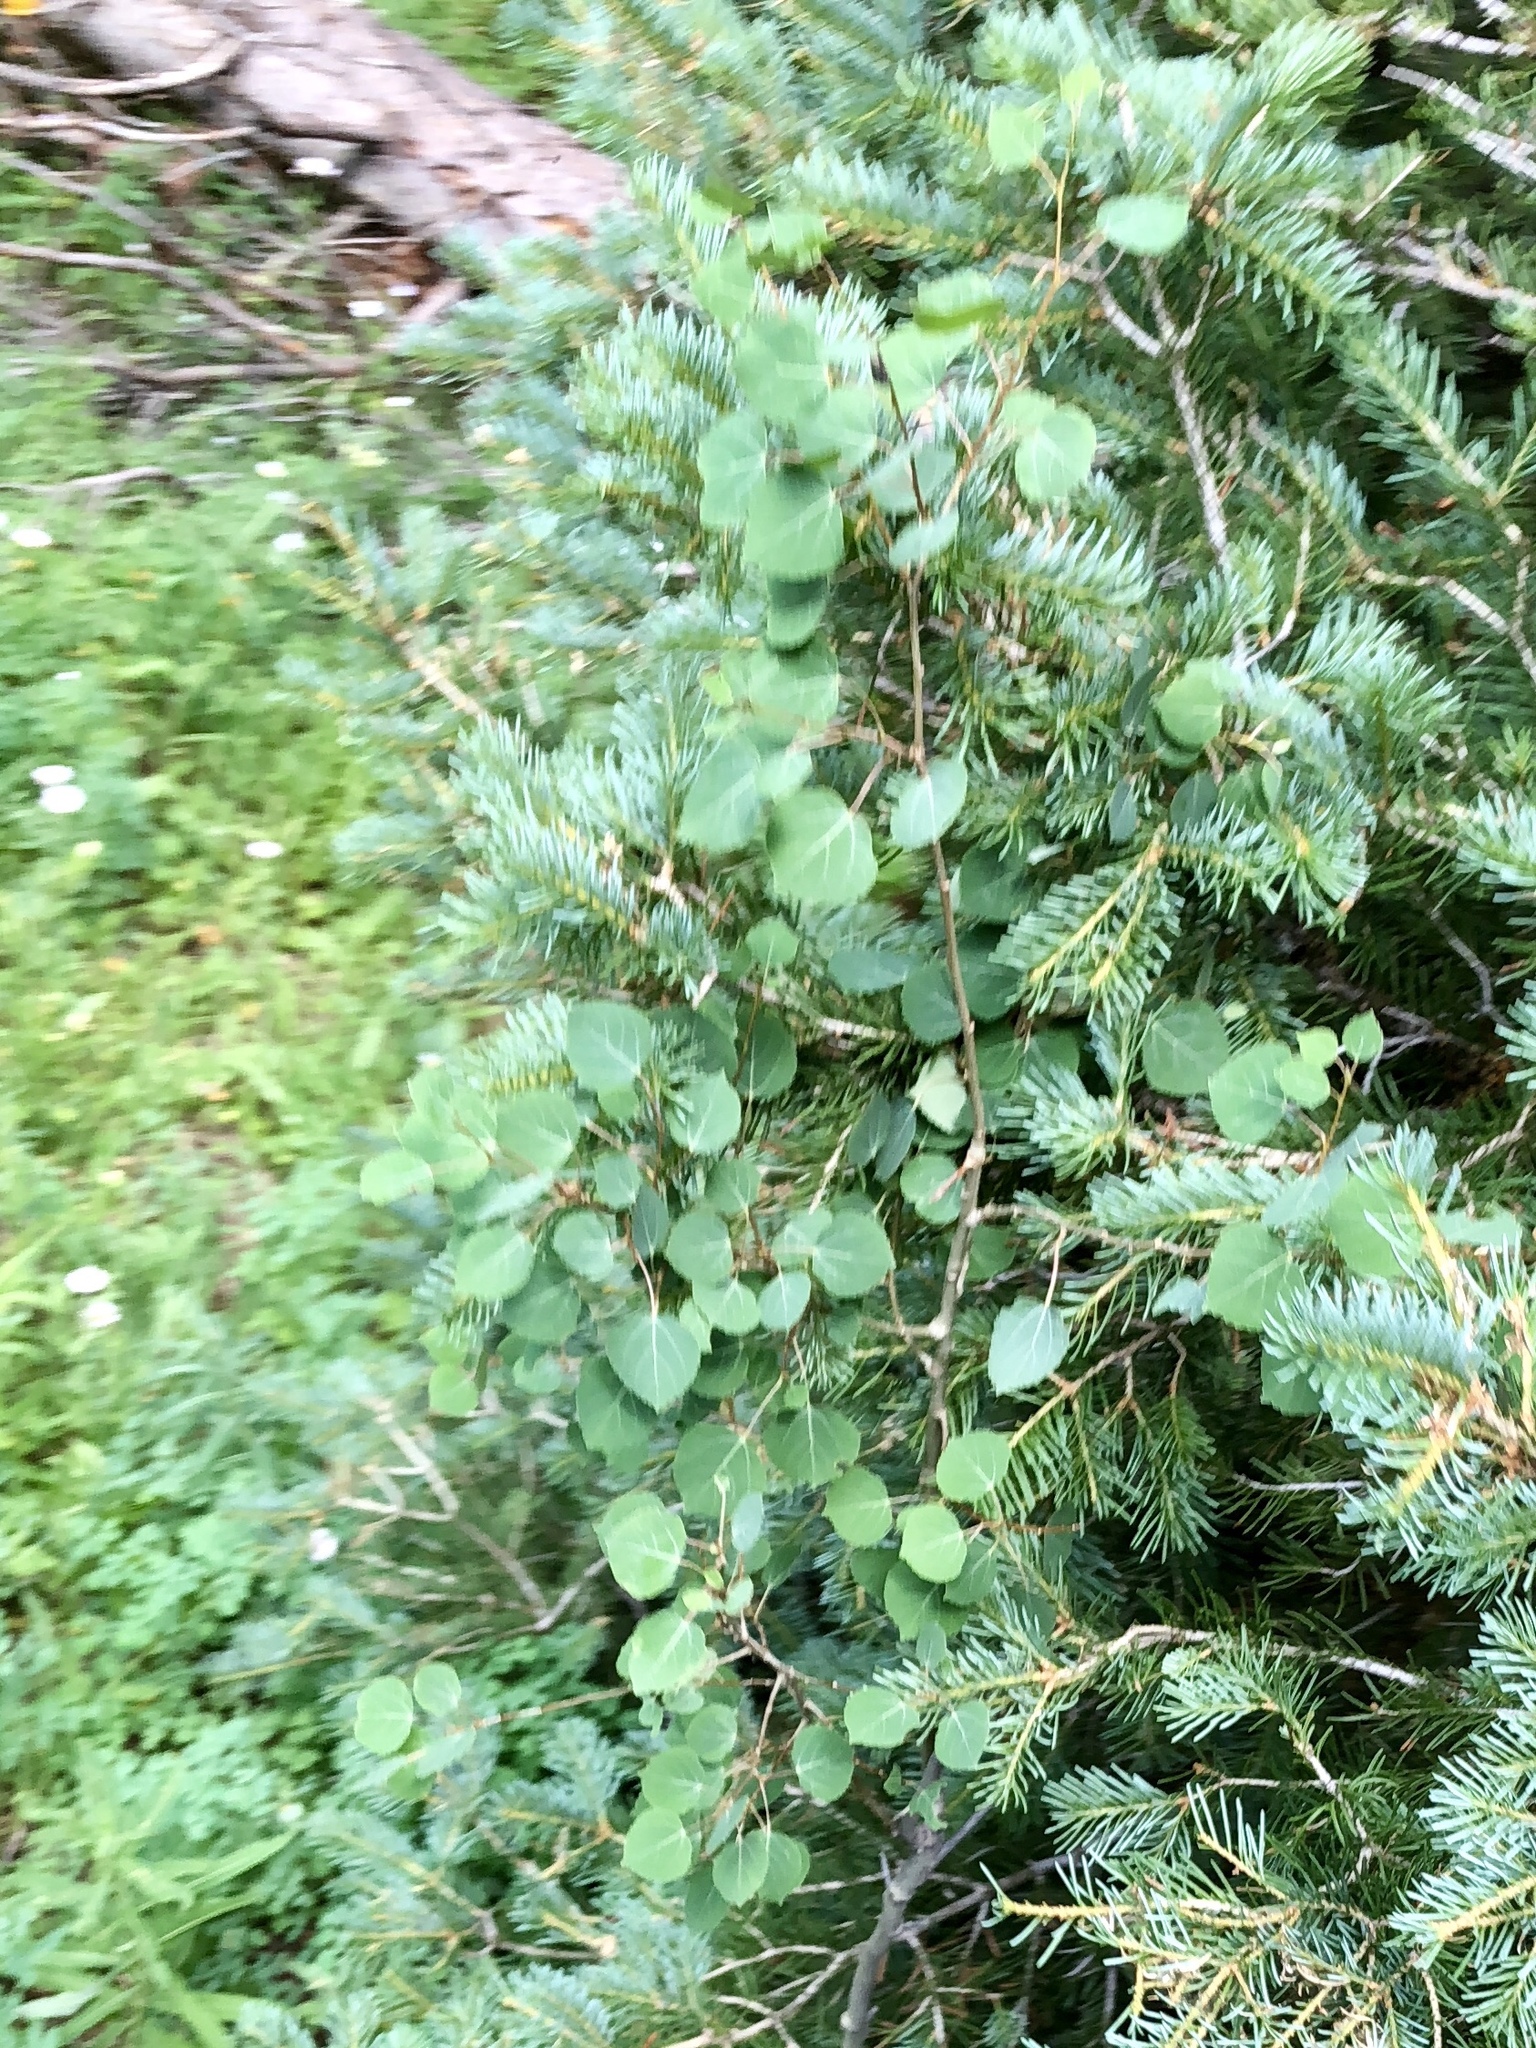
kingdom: Plantae
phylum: Tracheophyta
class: Magnoliopsida
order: Malpighiales
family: Salicaceae
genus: Populus
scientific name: Populus tremuloides
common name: Quaking aspen
